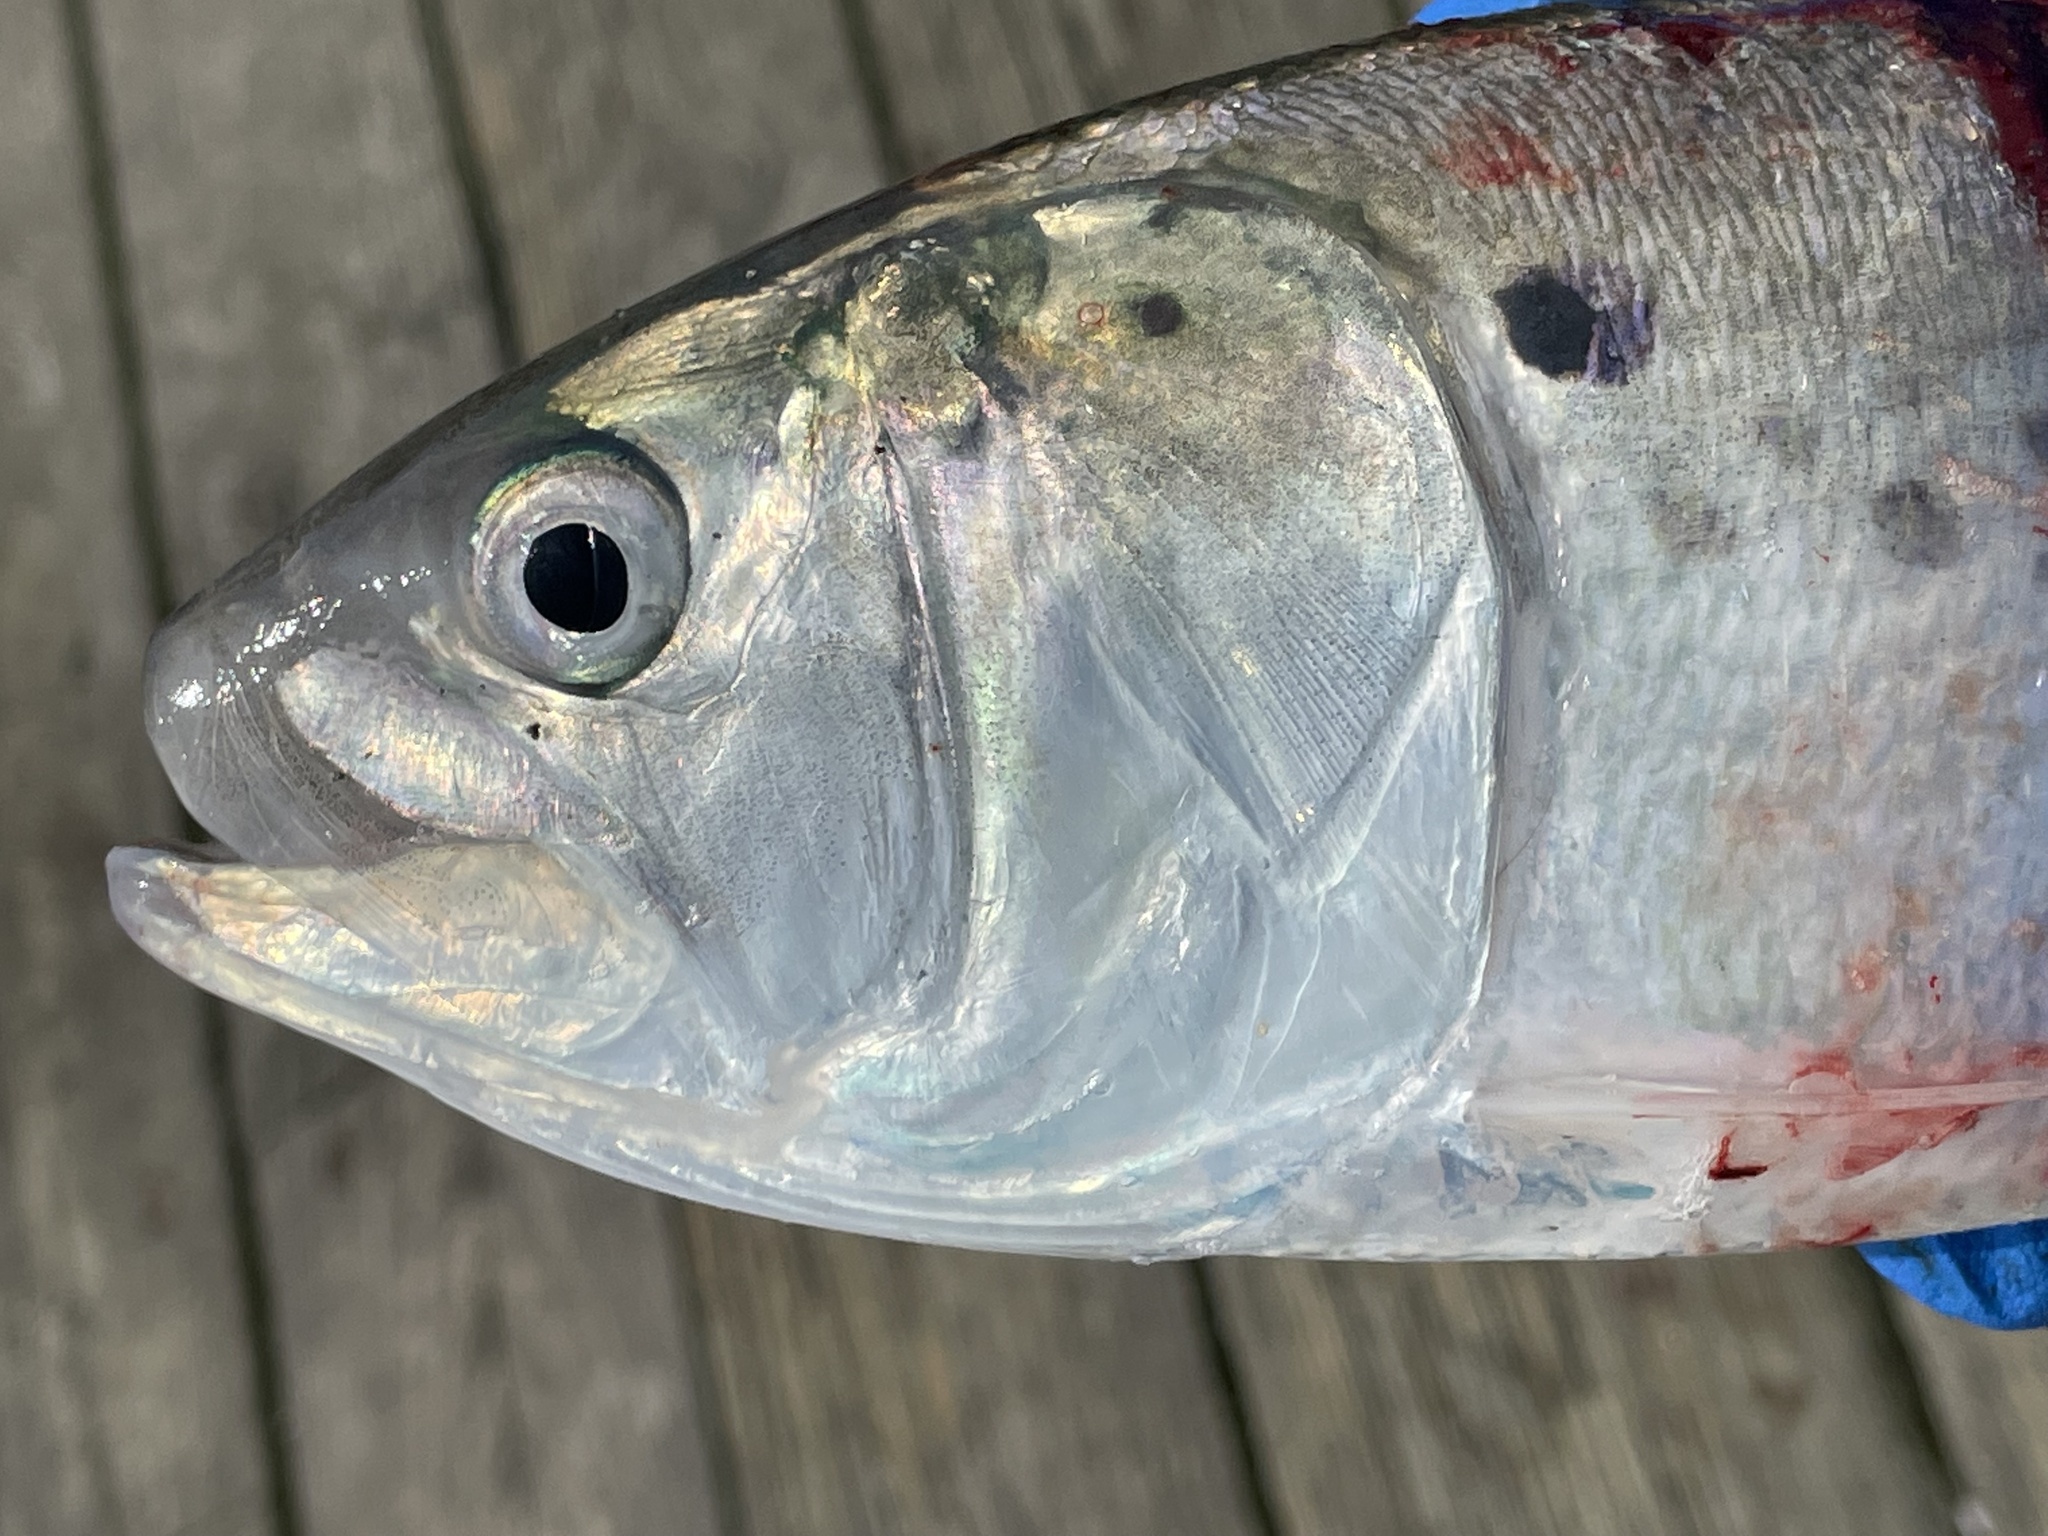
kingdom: Animalia
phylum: Chordata
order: Clupeiformes
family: Clupeidae
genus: Brevoortia
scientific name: Brevoortia tyrannus
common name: Atlantic menhaden
